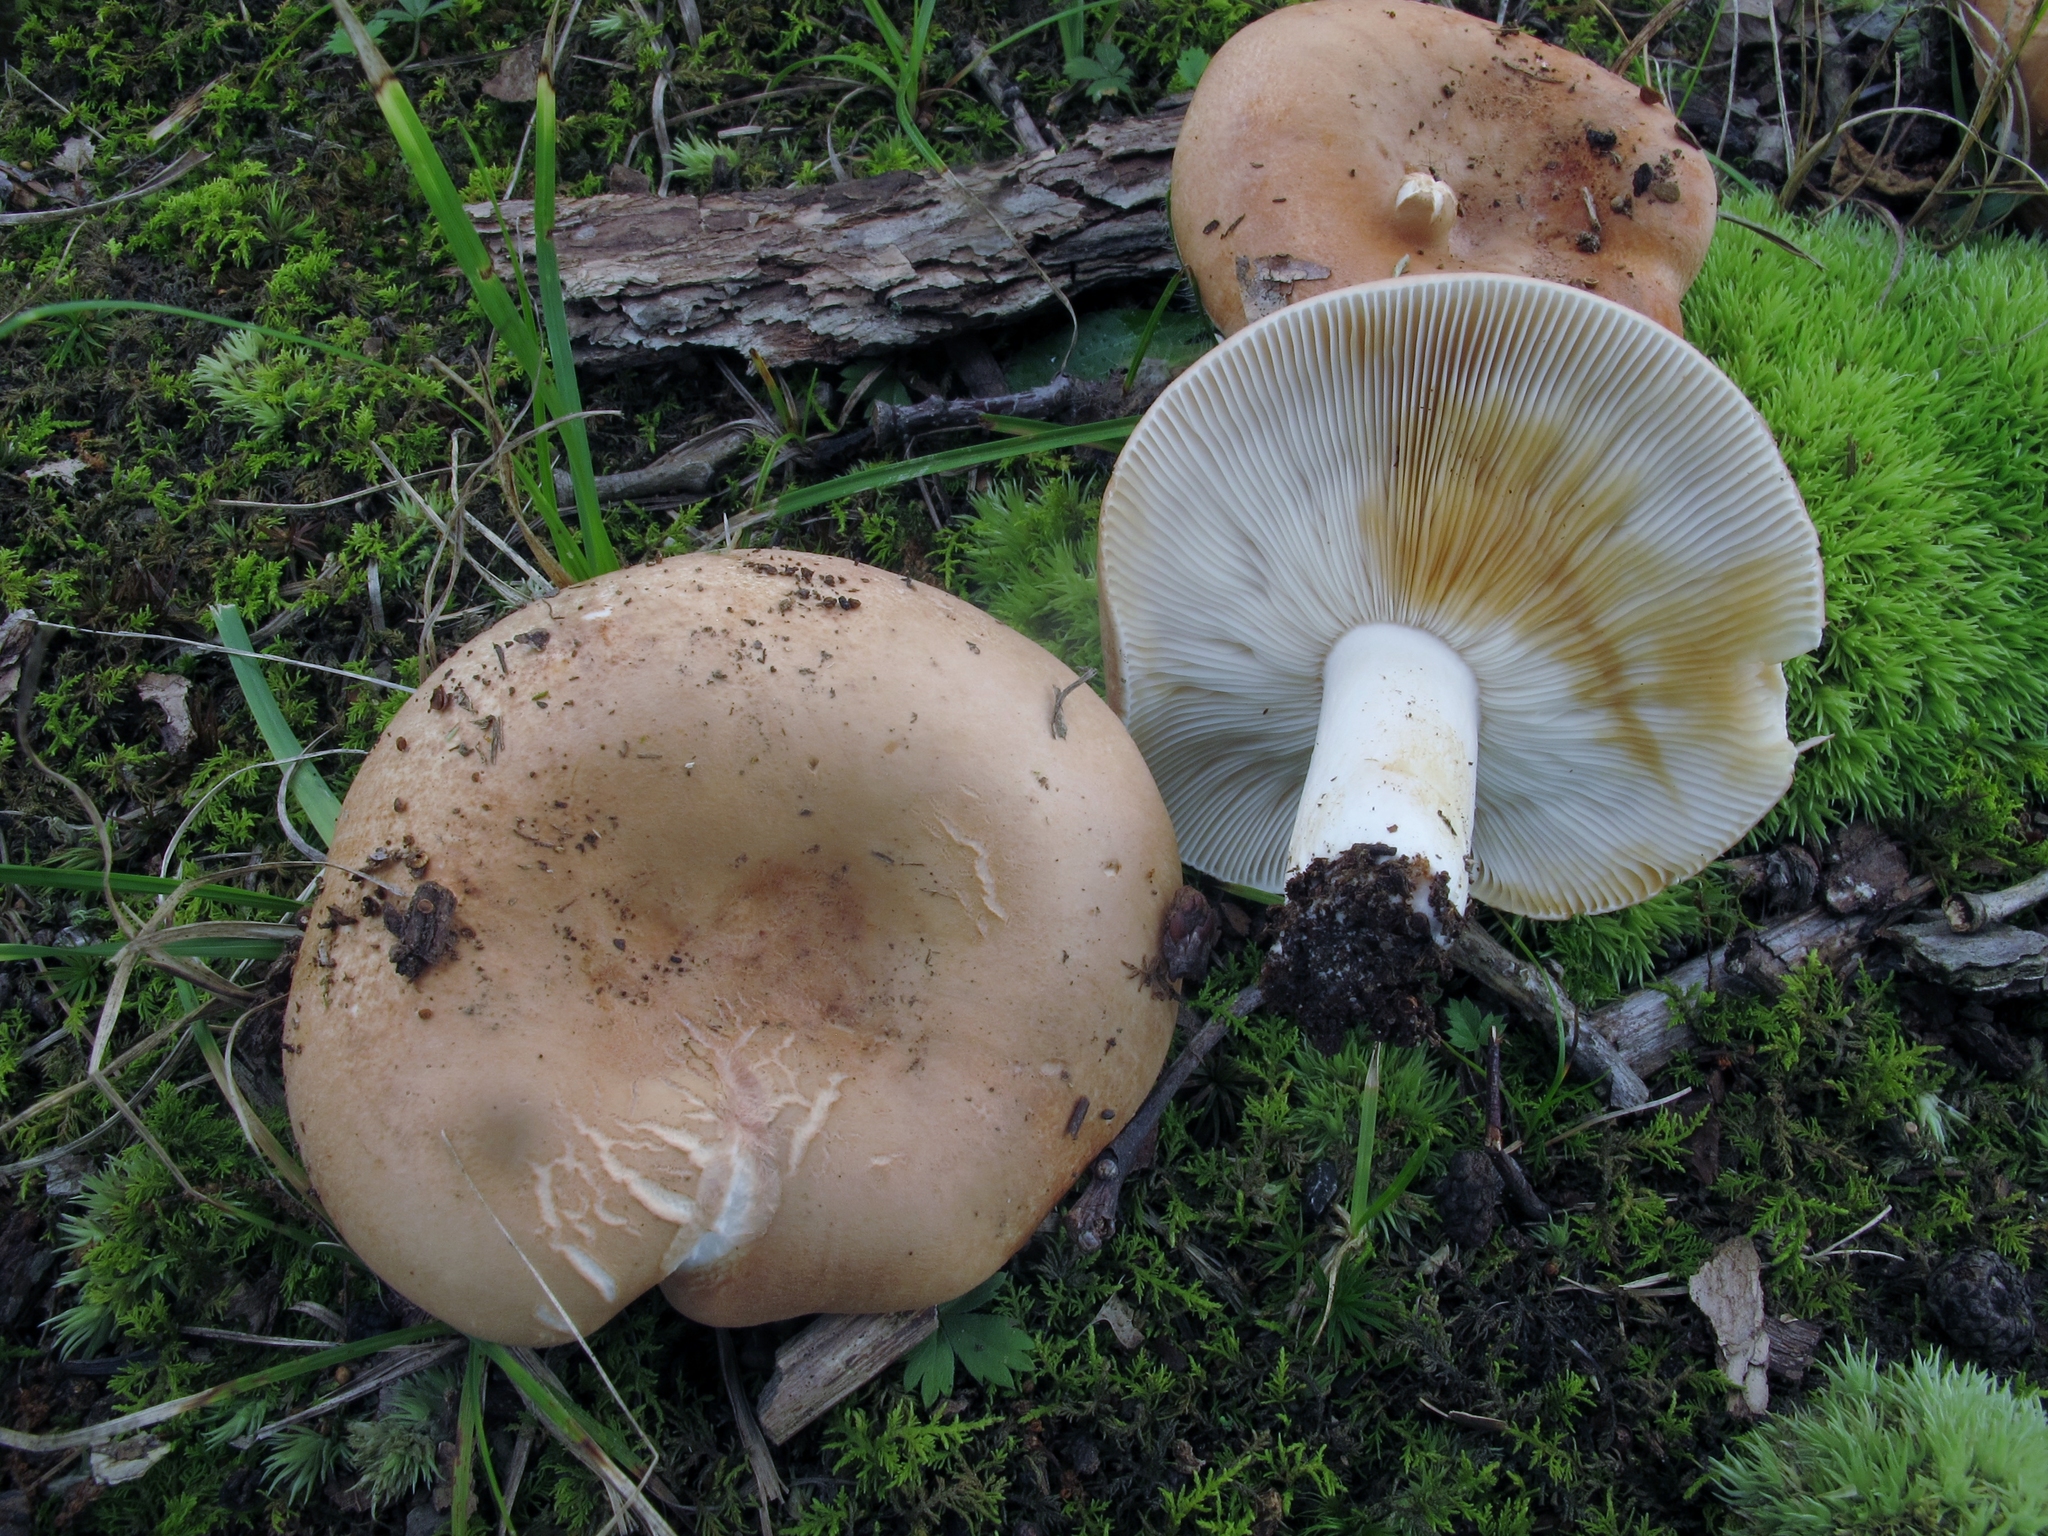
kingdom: Fungi
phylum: Basidiomycota
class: Agaricomycetes
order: Russulales
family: Russulaceae
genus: Russula
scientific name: Russula compacta
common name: Fishbiscuit russula
